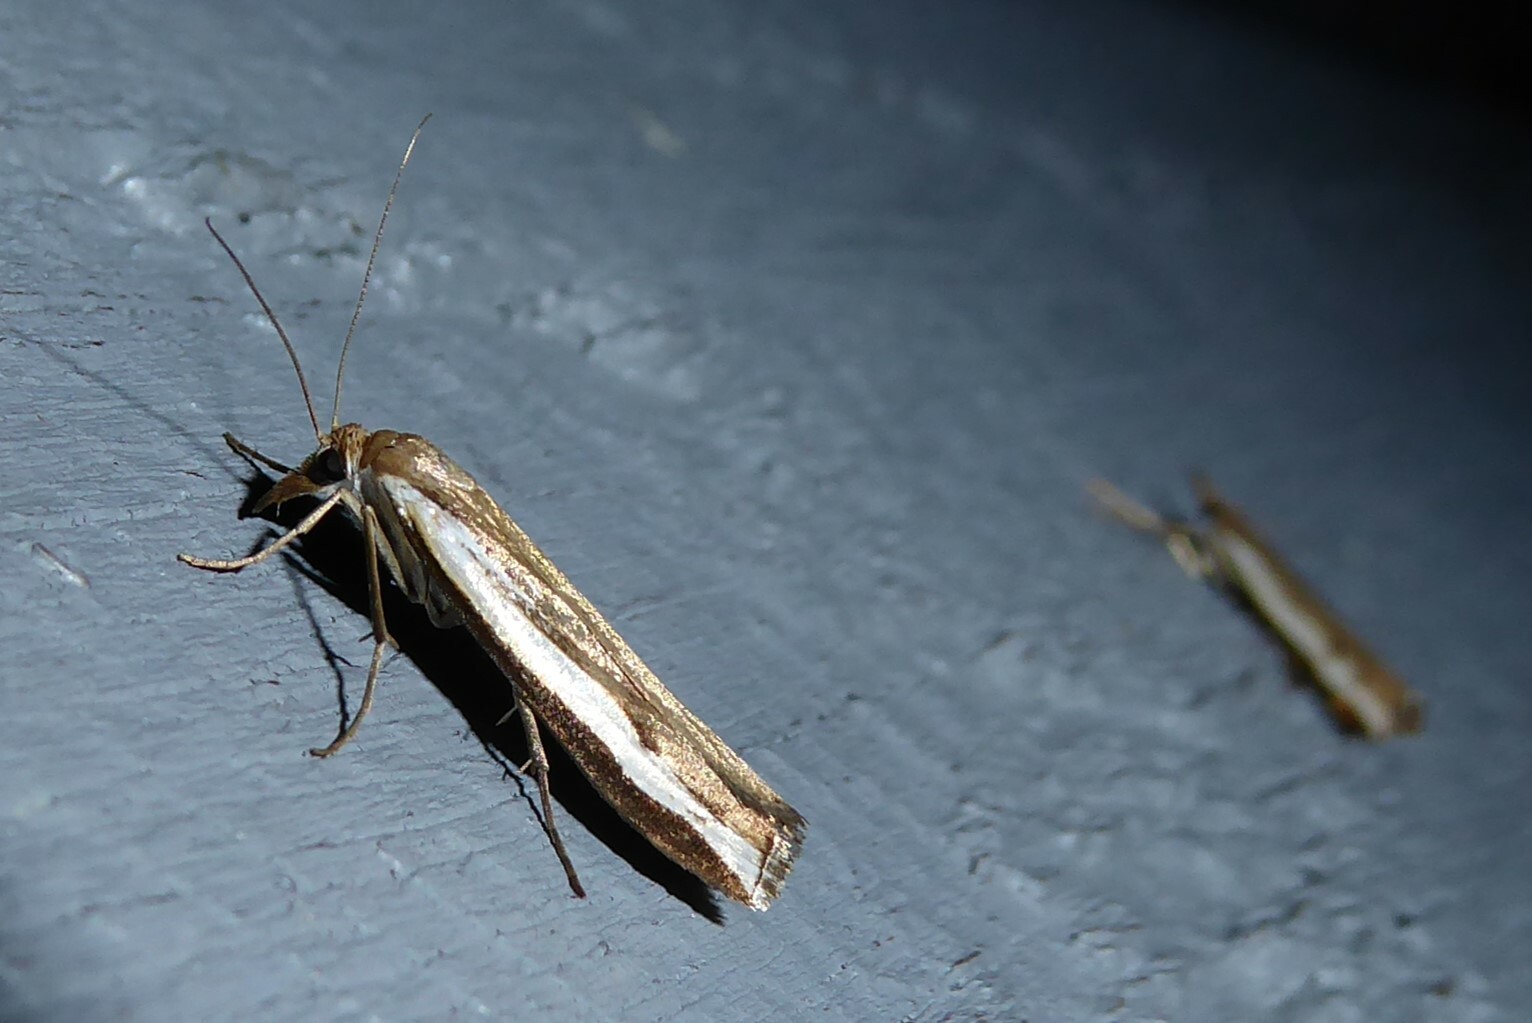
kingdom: Animalia
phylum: Arthropoda
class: Insecta
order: Lepidoptera
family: Crambidae
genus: Orocrambus
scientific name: Orocrambus flexuosellus
